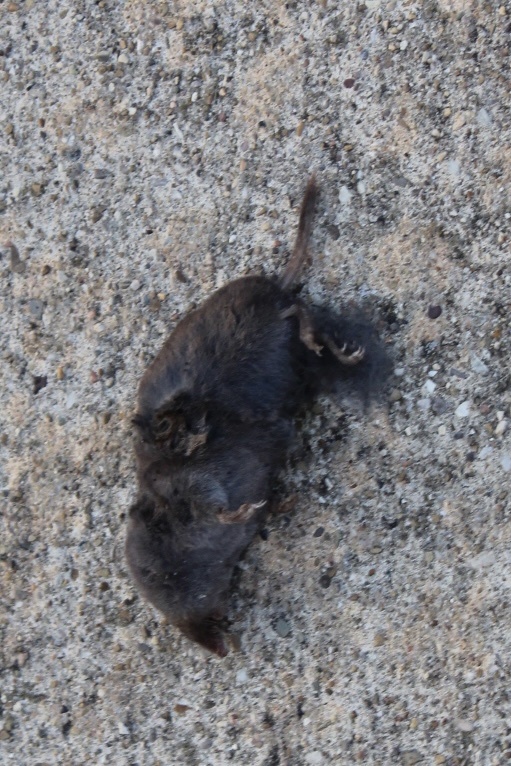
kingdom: Animalia
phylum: Chordata
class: Mammalia
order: Soricomorpha
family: Soricidae
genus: Blarina
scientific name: Blarina brevicauda
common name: Northern short-tailed shrew
